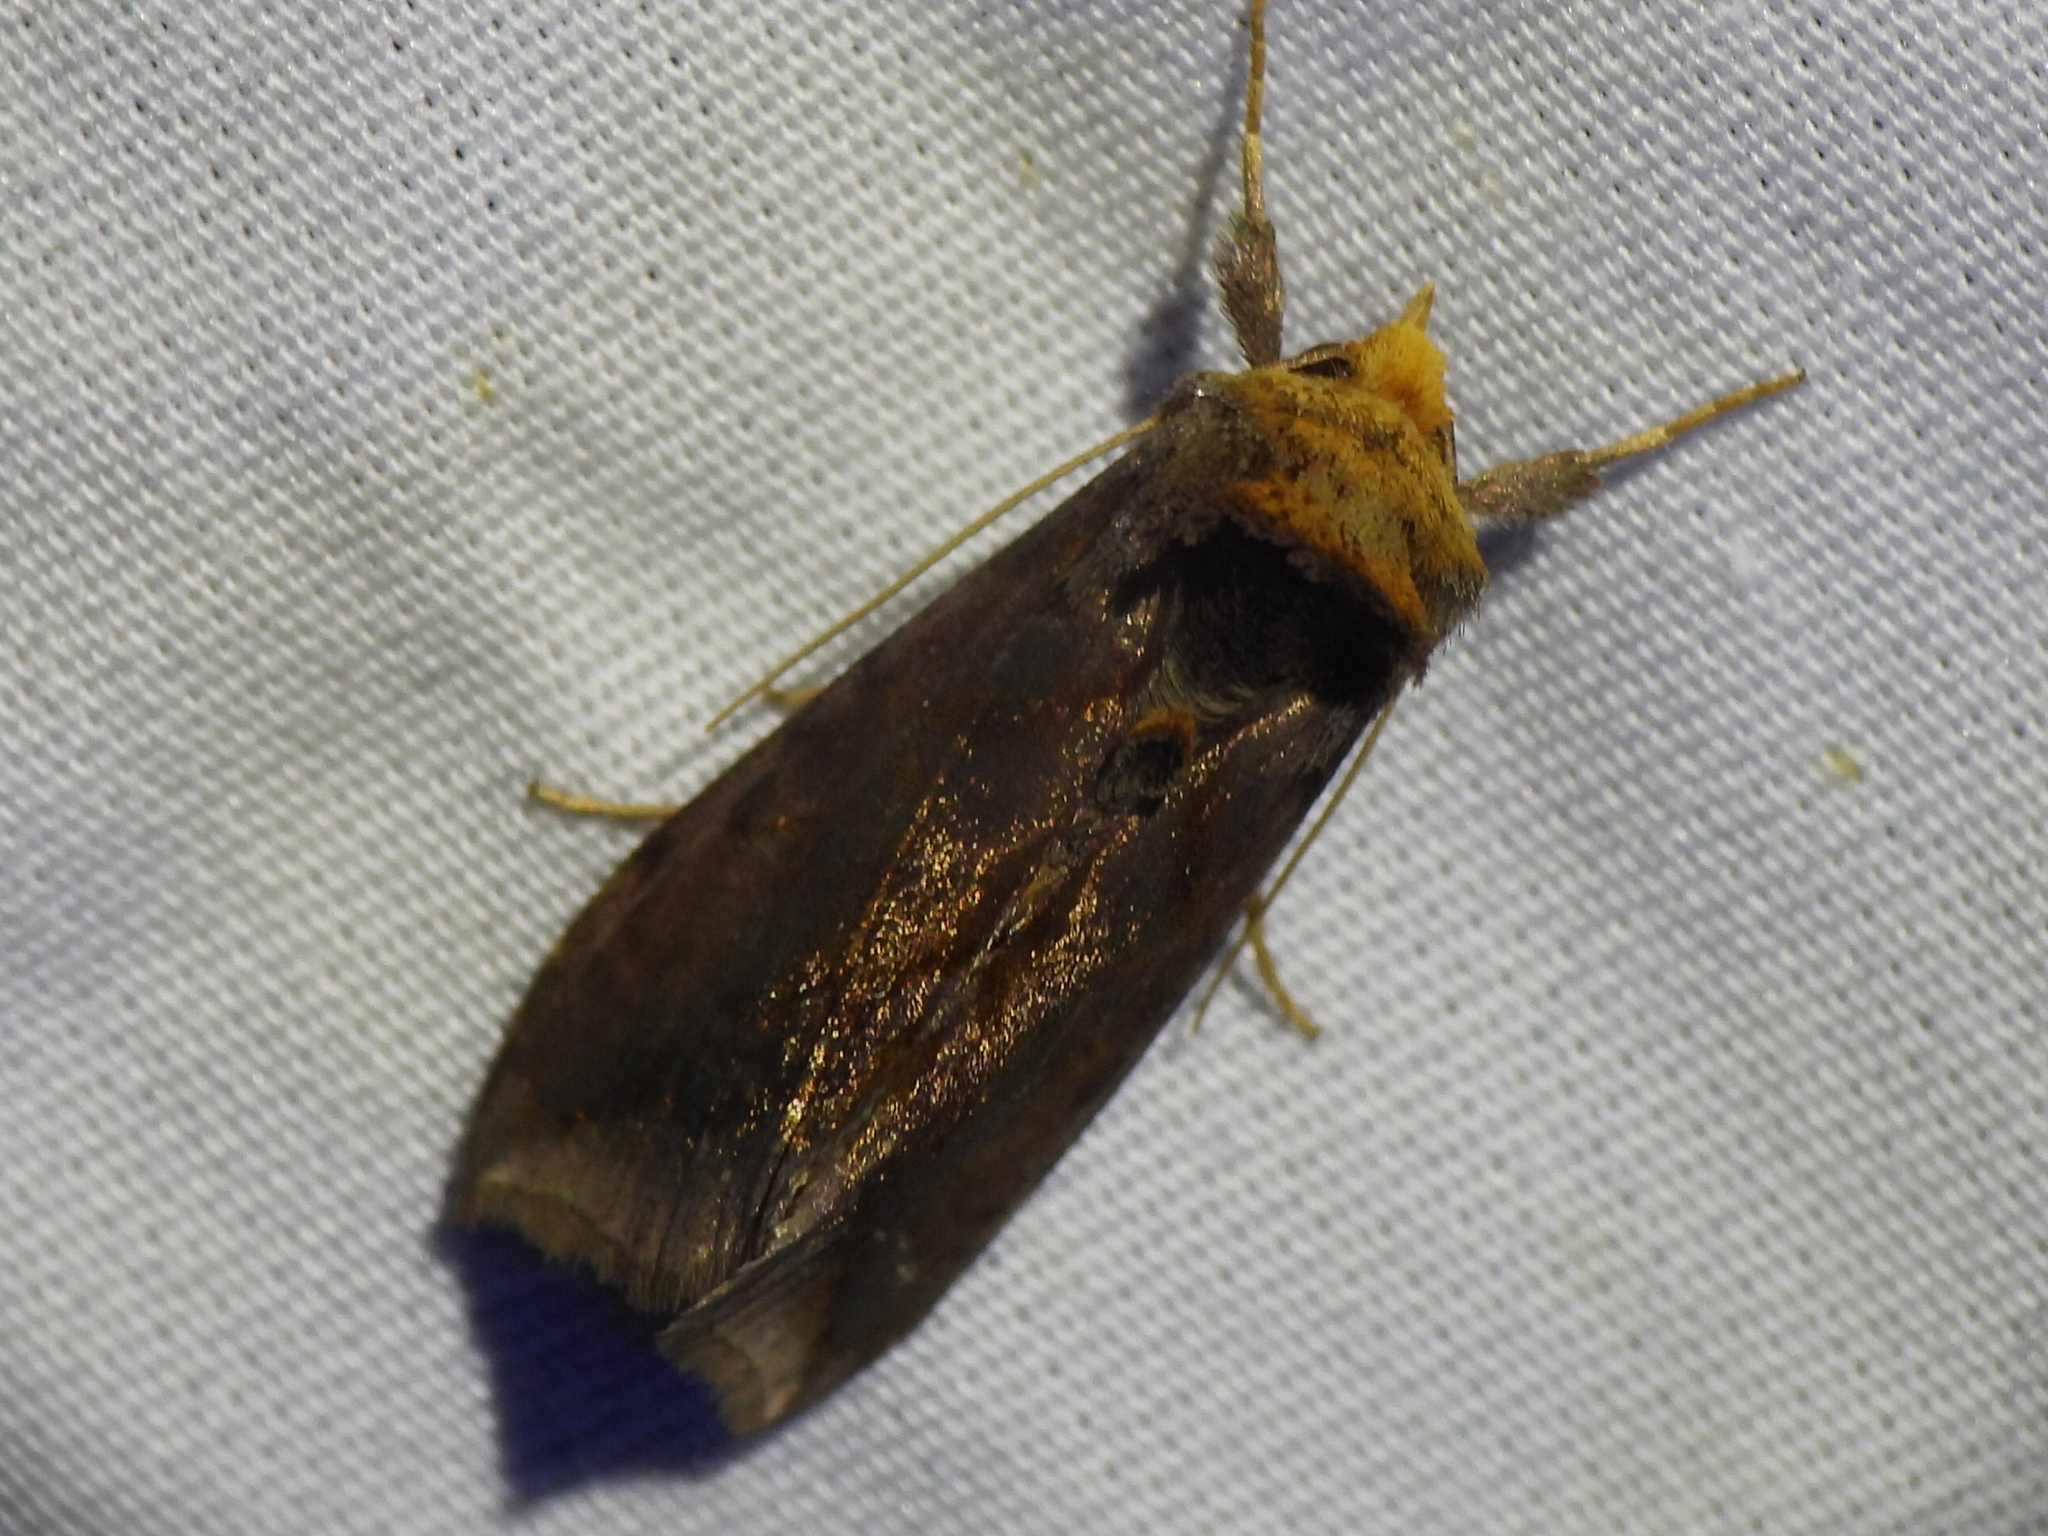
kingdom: Animalia
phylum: Arthropoda
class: Insecta
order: Lepidoptera
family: Noctuidae
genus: Allagrapha
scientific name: Allagrapha aerea
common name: Unspotted looper moth
